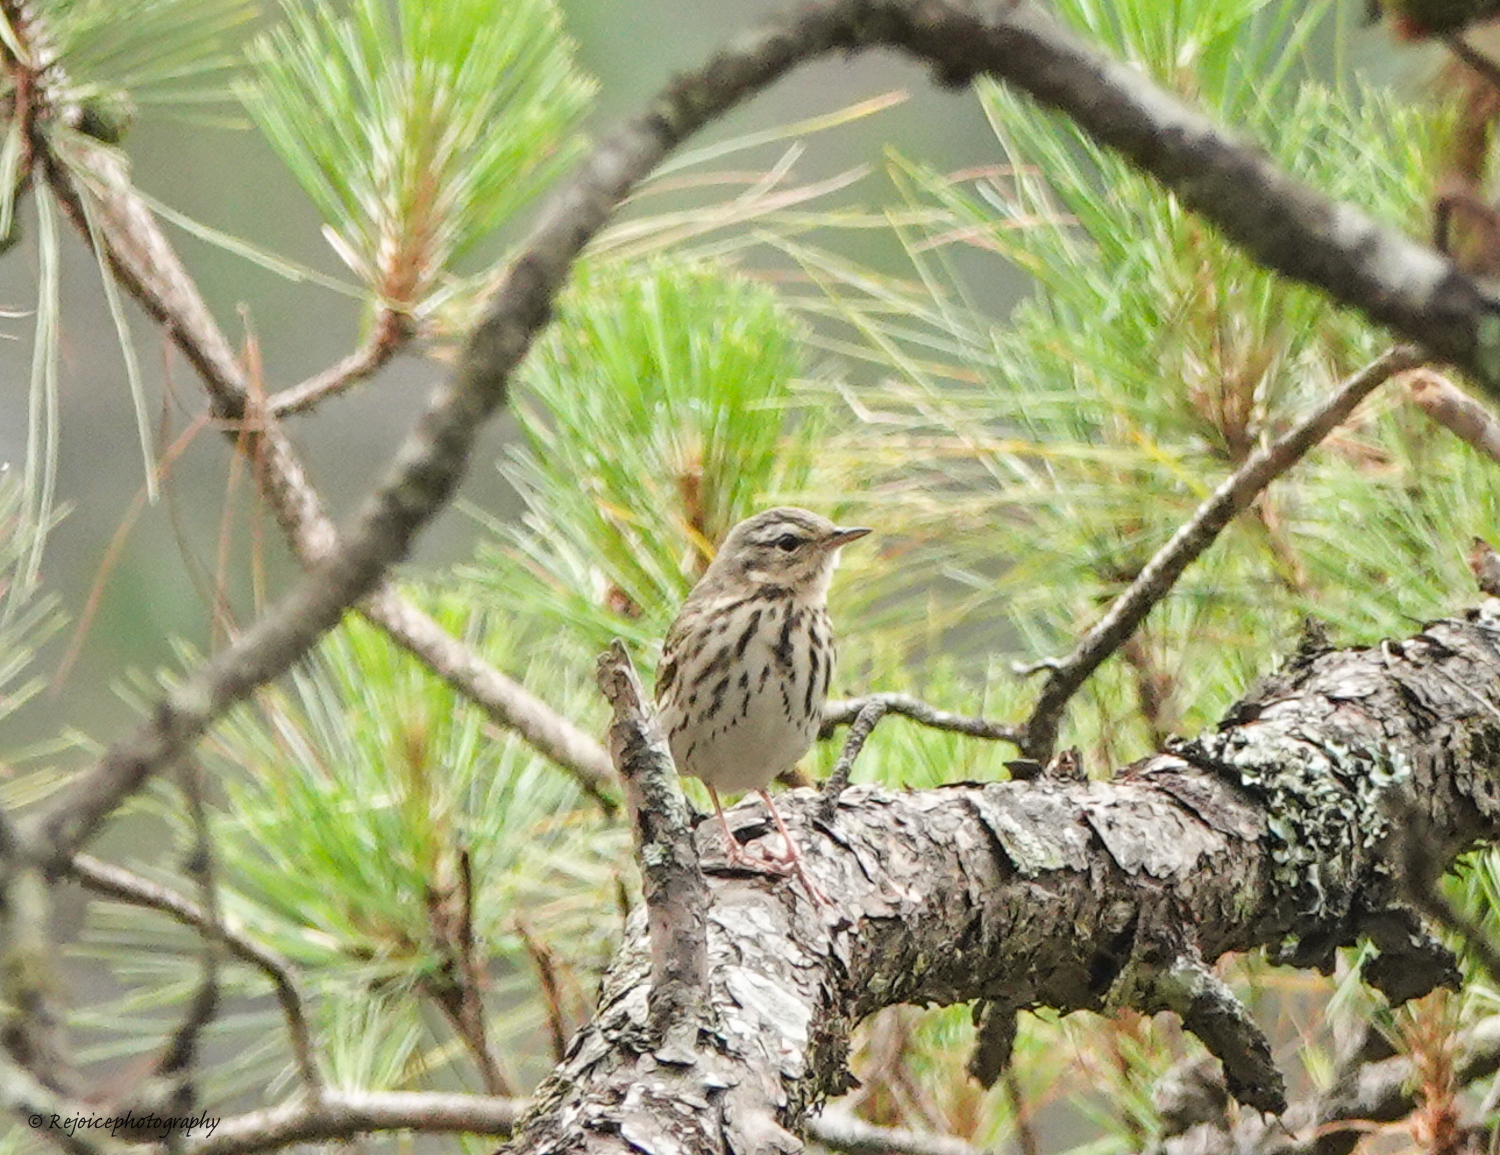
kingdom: Animalia
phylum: Chordata
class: Aves
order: Passeriformes
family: Motacillidae
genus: Anthus
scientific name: Anthus hodgsoni
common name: Olive-backed pipit
